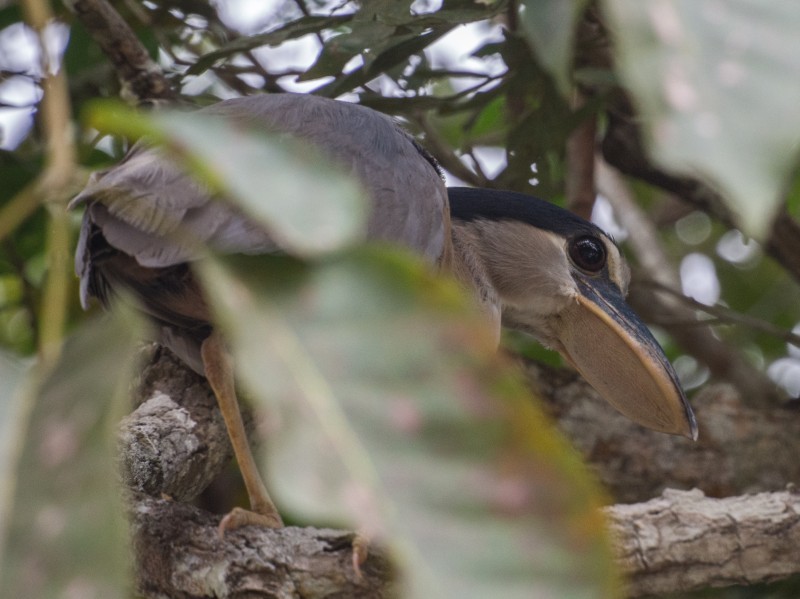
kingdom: Animalia
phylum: Chordata
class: Aves
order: Pelecaniformes
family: Ardeidae
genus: Cochlearius
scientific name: Cochlearius cochlearius
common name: Boat-billed heron
